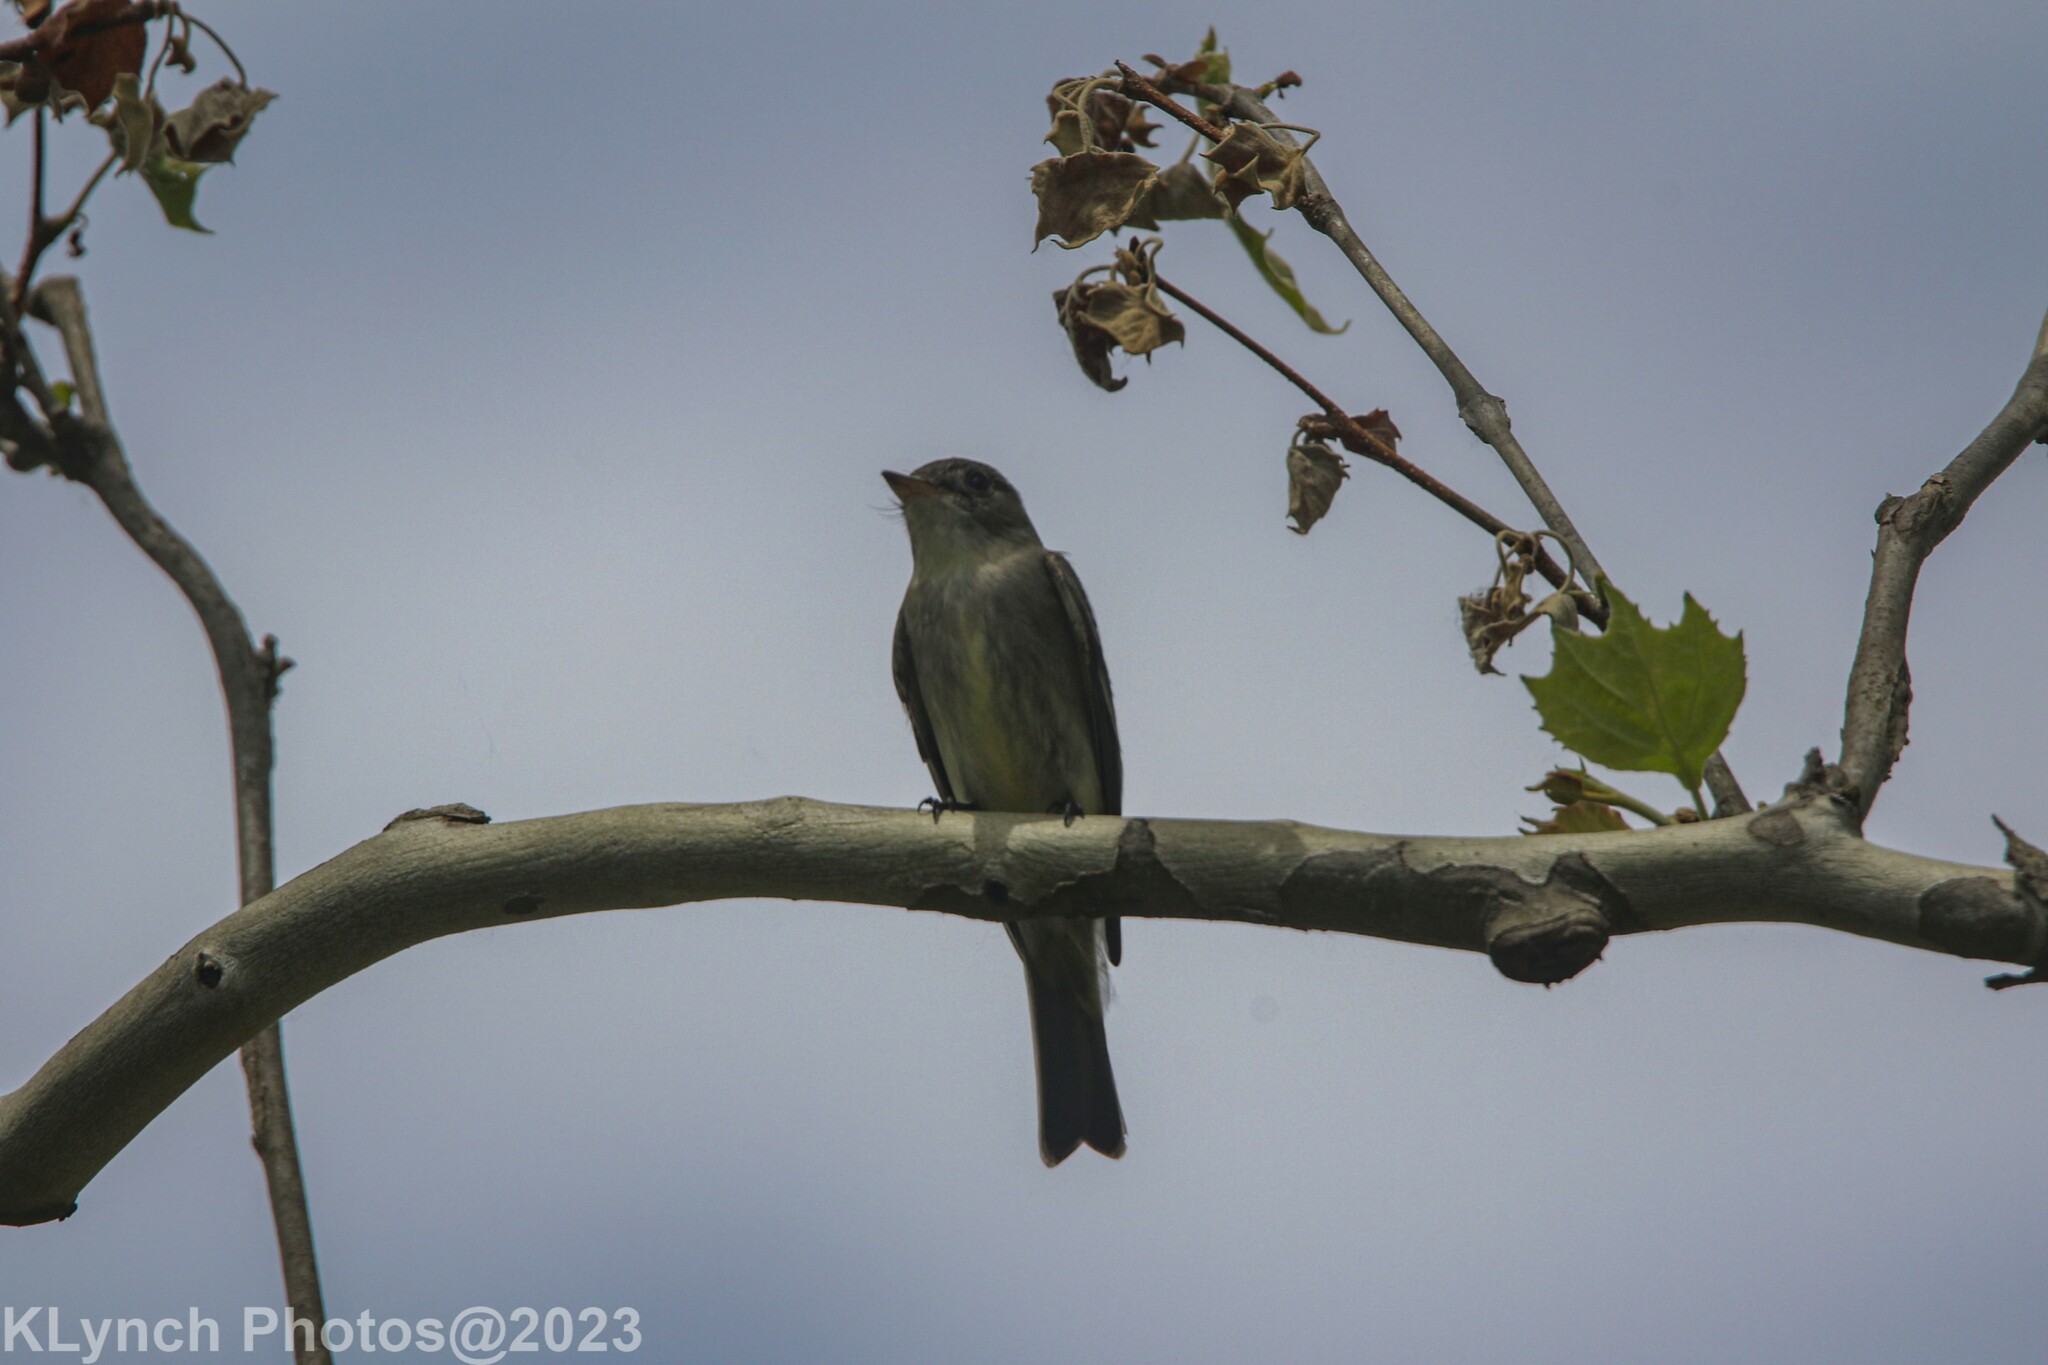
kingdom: Animalia
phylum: Chordata
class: Aves
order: Passeriformes
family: Tyrannidae
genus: Contopus
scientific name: Contopus virens
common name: Eastern wood-pewee
